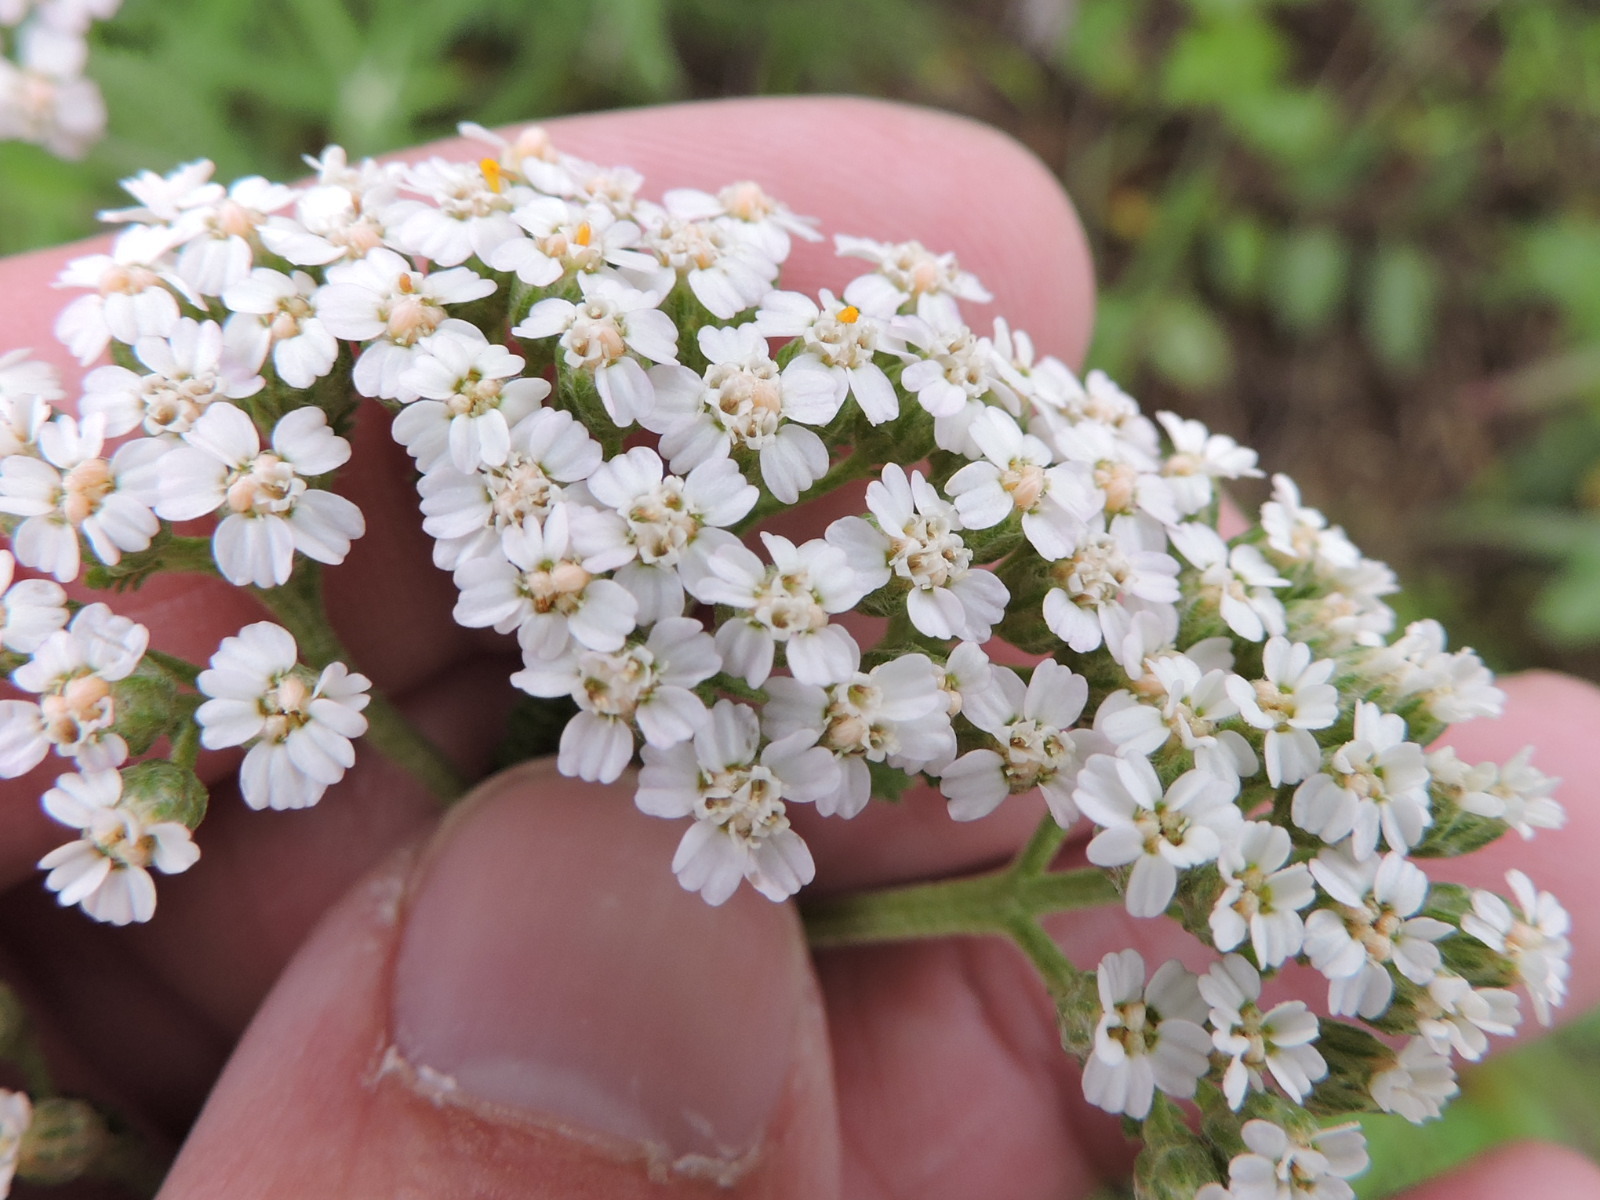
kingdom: Plantae
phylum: Tracheophyta
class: Magnoliopsida
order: Asterales
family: Asteraceae
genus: Achillea
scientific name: Achillea millefolium
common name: Yarrow
